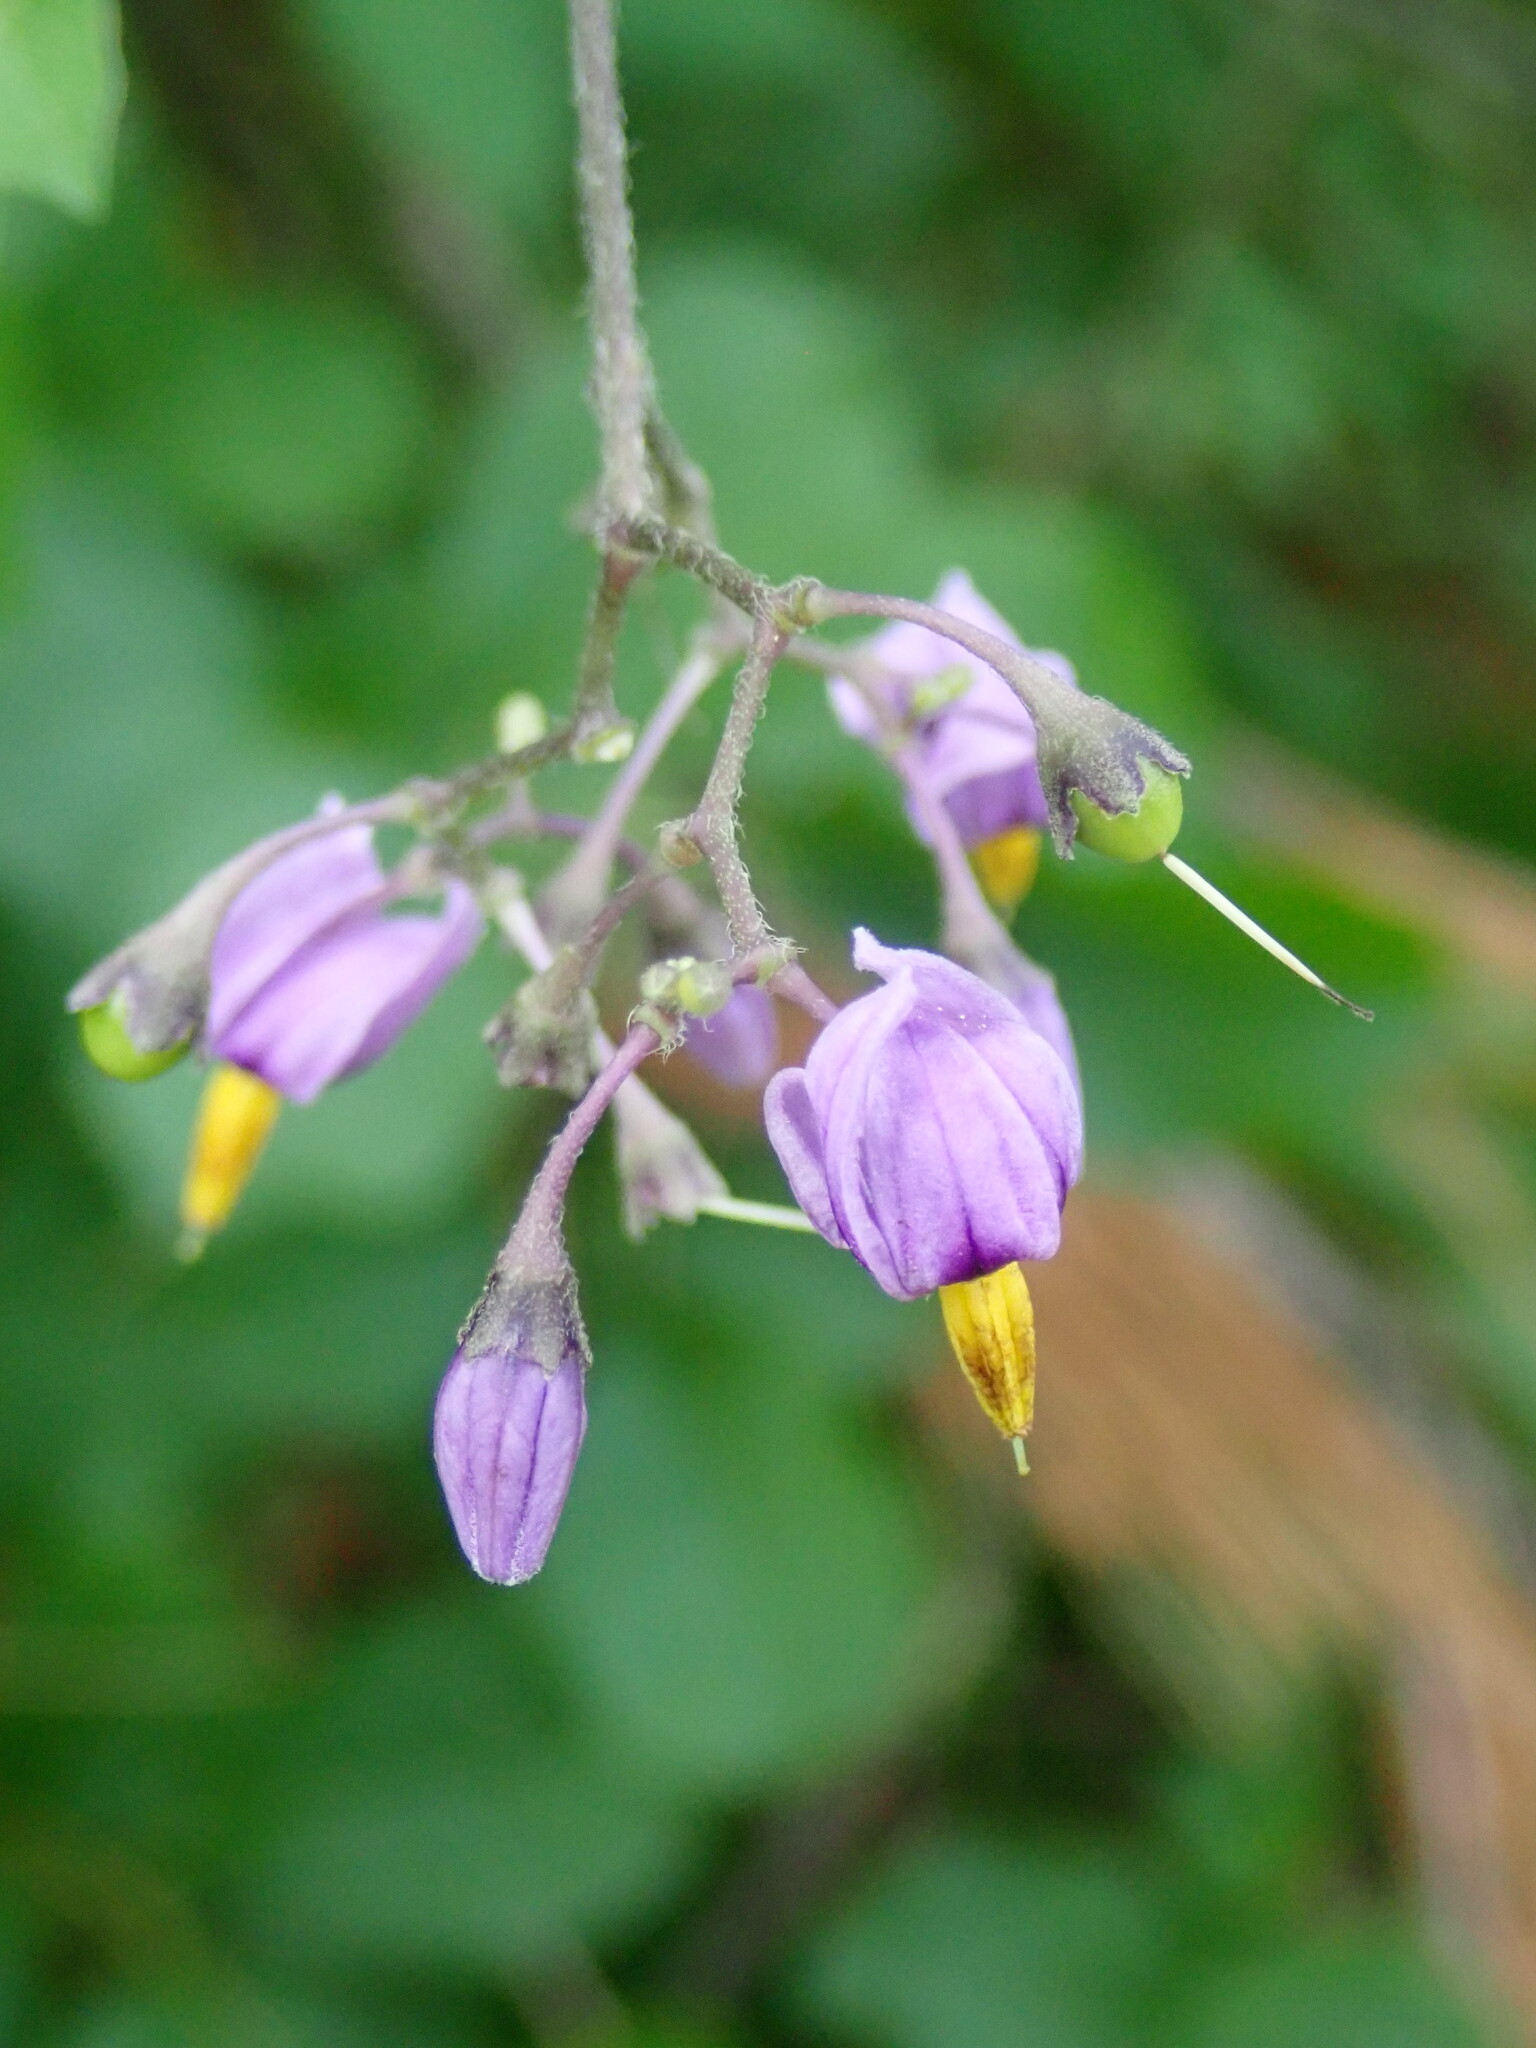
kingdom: Plantae
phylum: Tracheophyta
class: Magnoliopsida
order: Solanales
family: Solanaceae
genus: Solanum
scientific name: Solanum dulcamara
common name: Climbing nightshade
